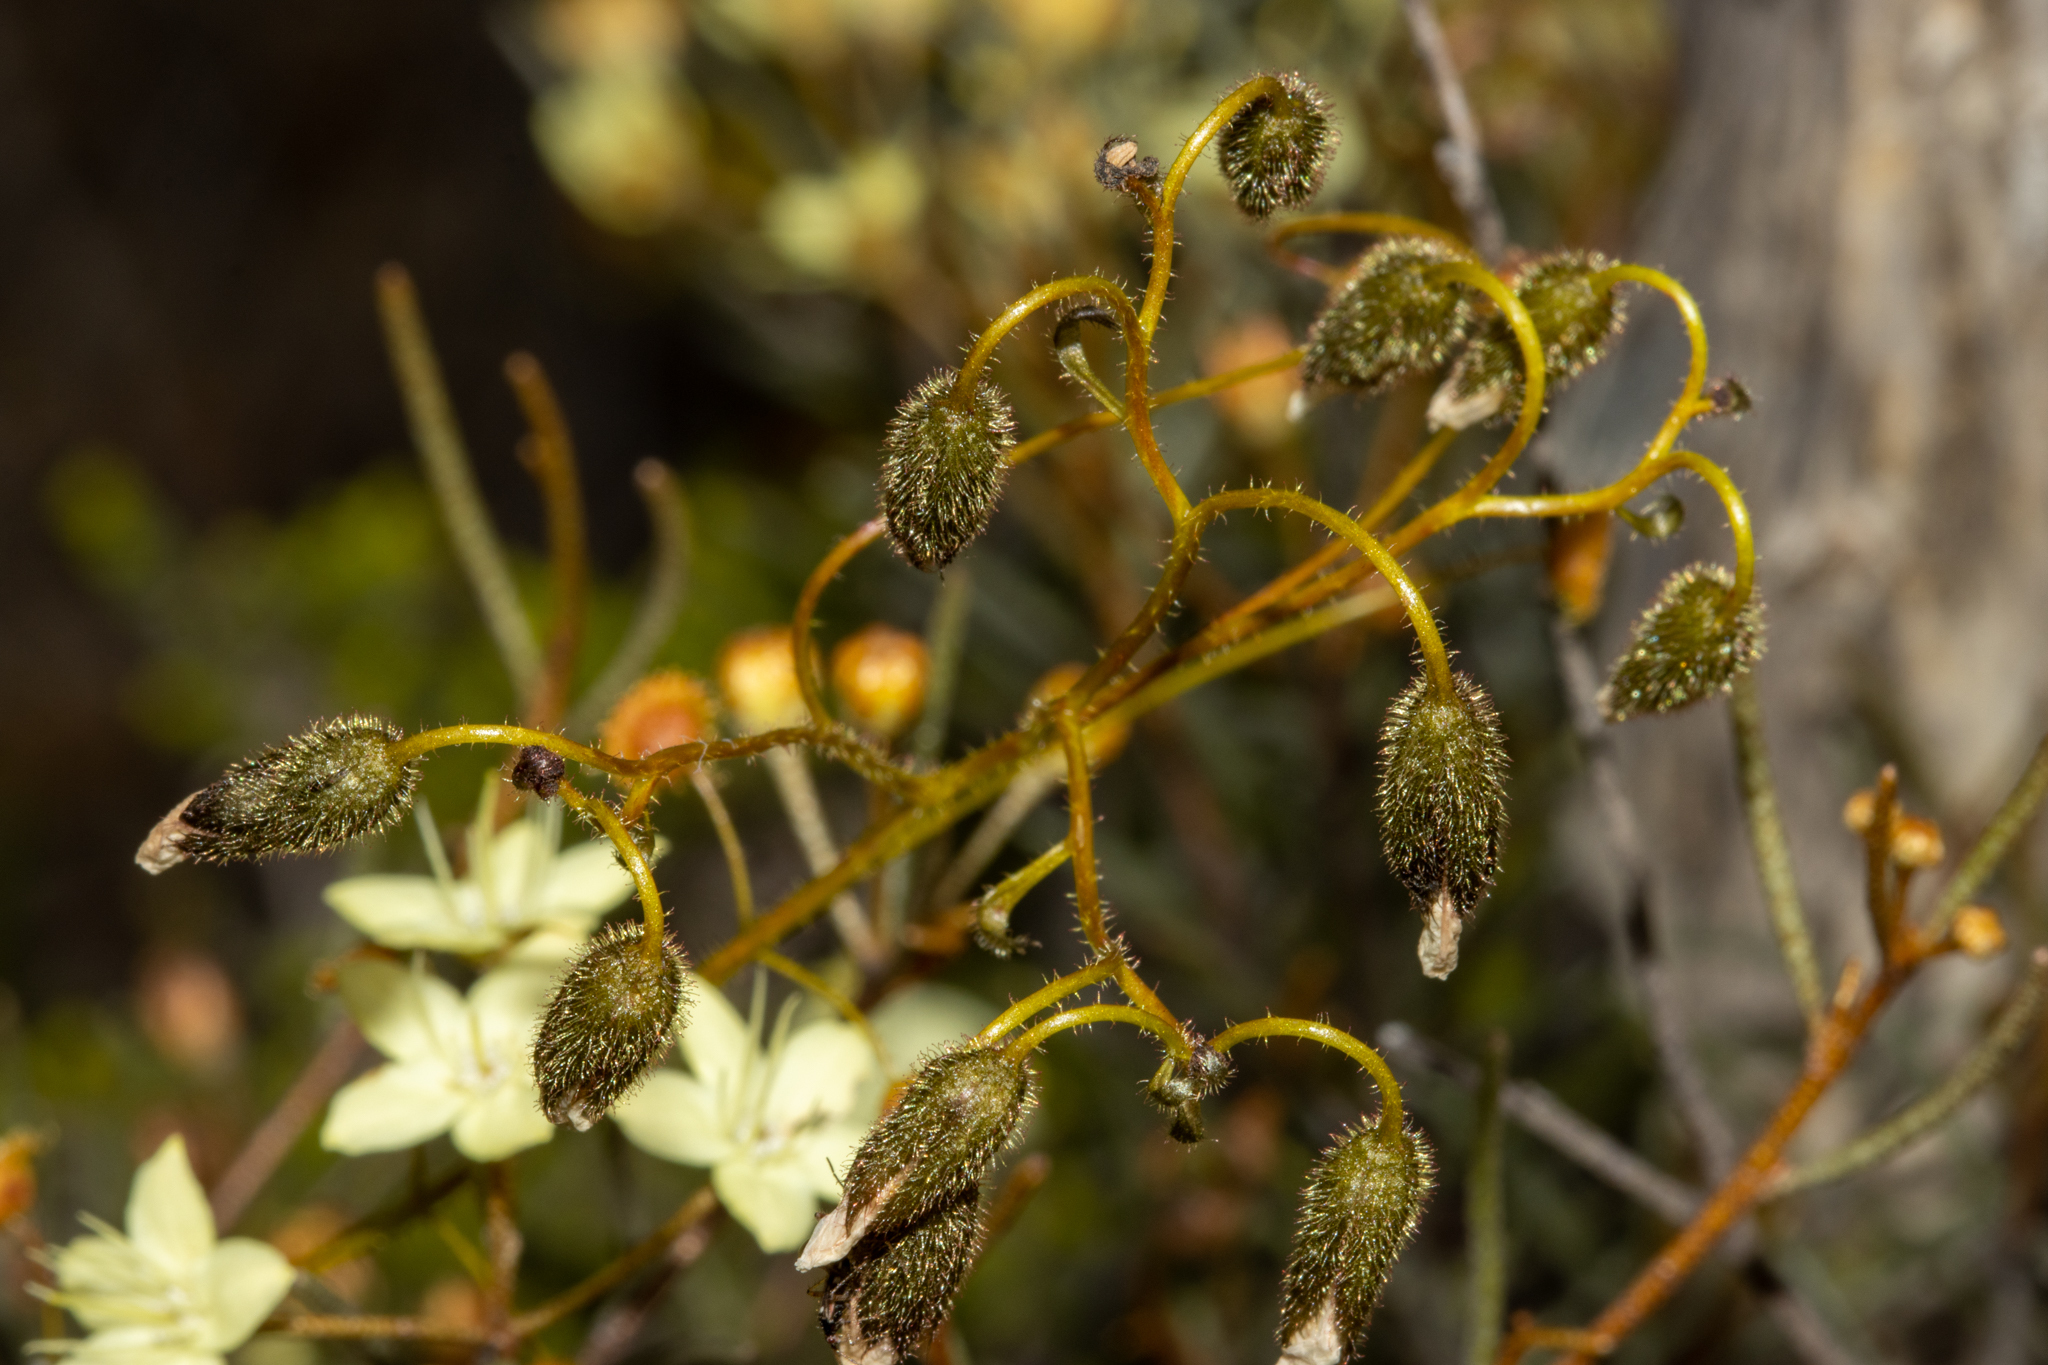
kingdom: Plantae
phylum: Tracheophyta
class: Magnoliopsida
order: Caryophyllales
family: Droseraceae
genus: Drosera
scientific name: Drosera macrantha
